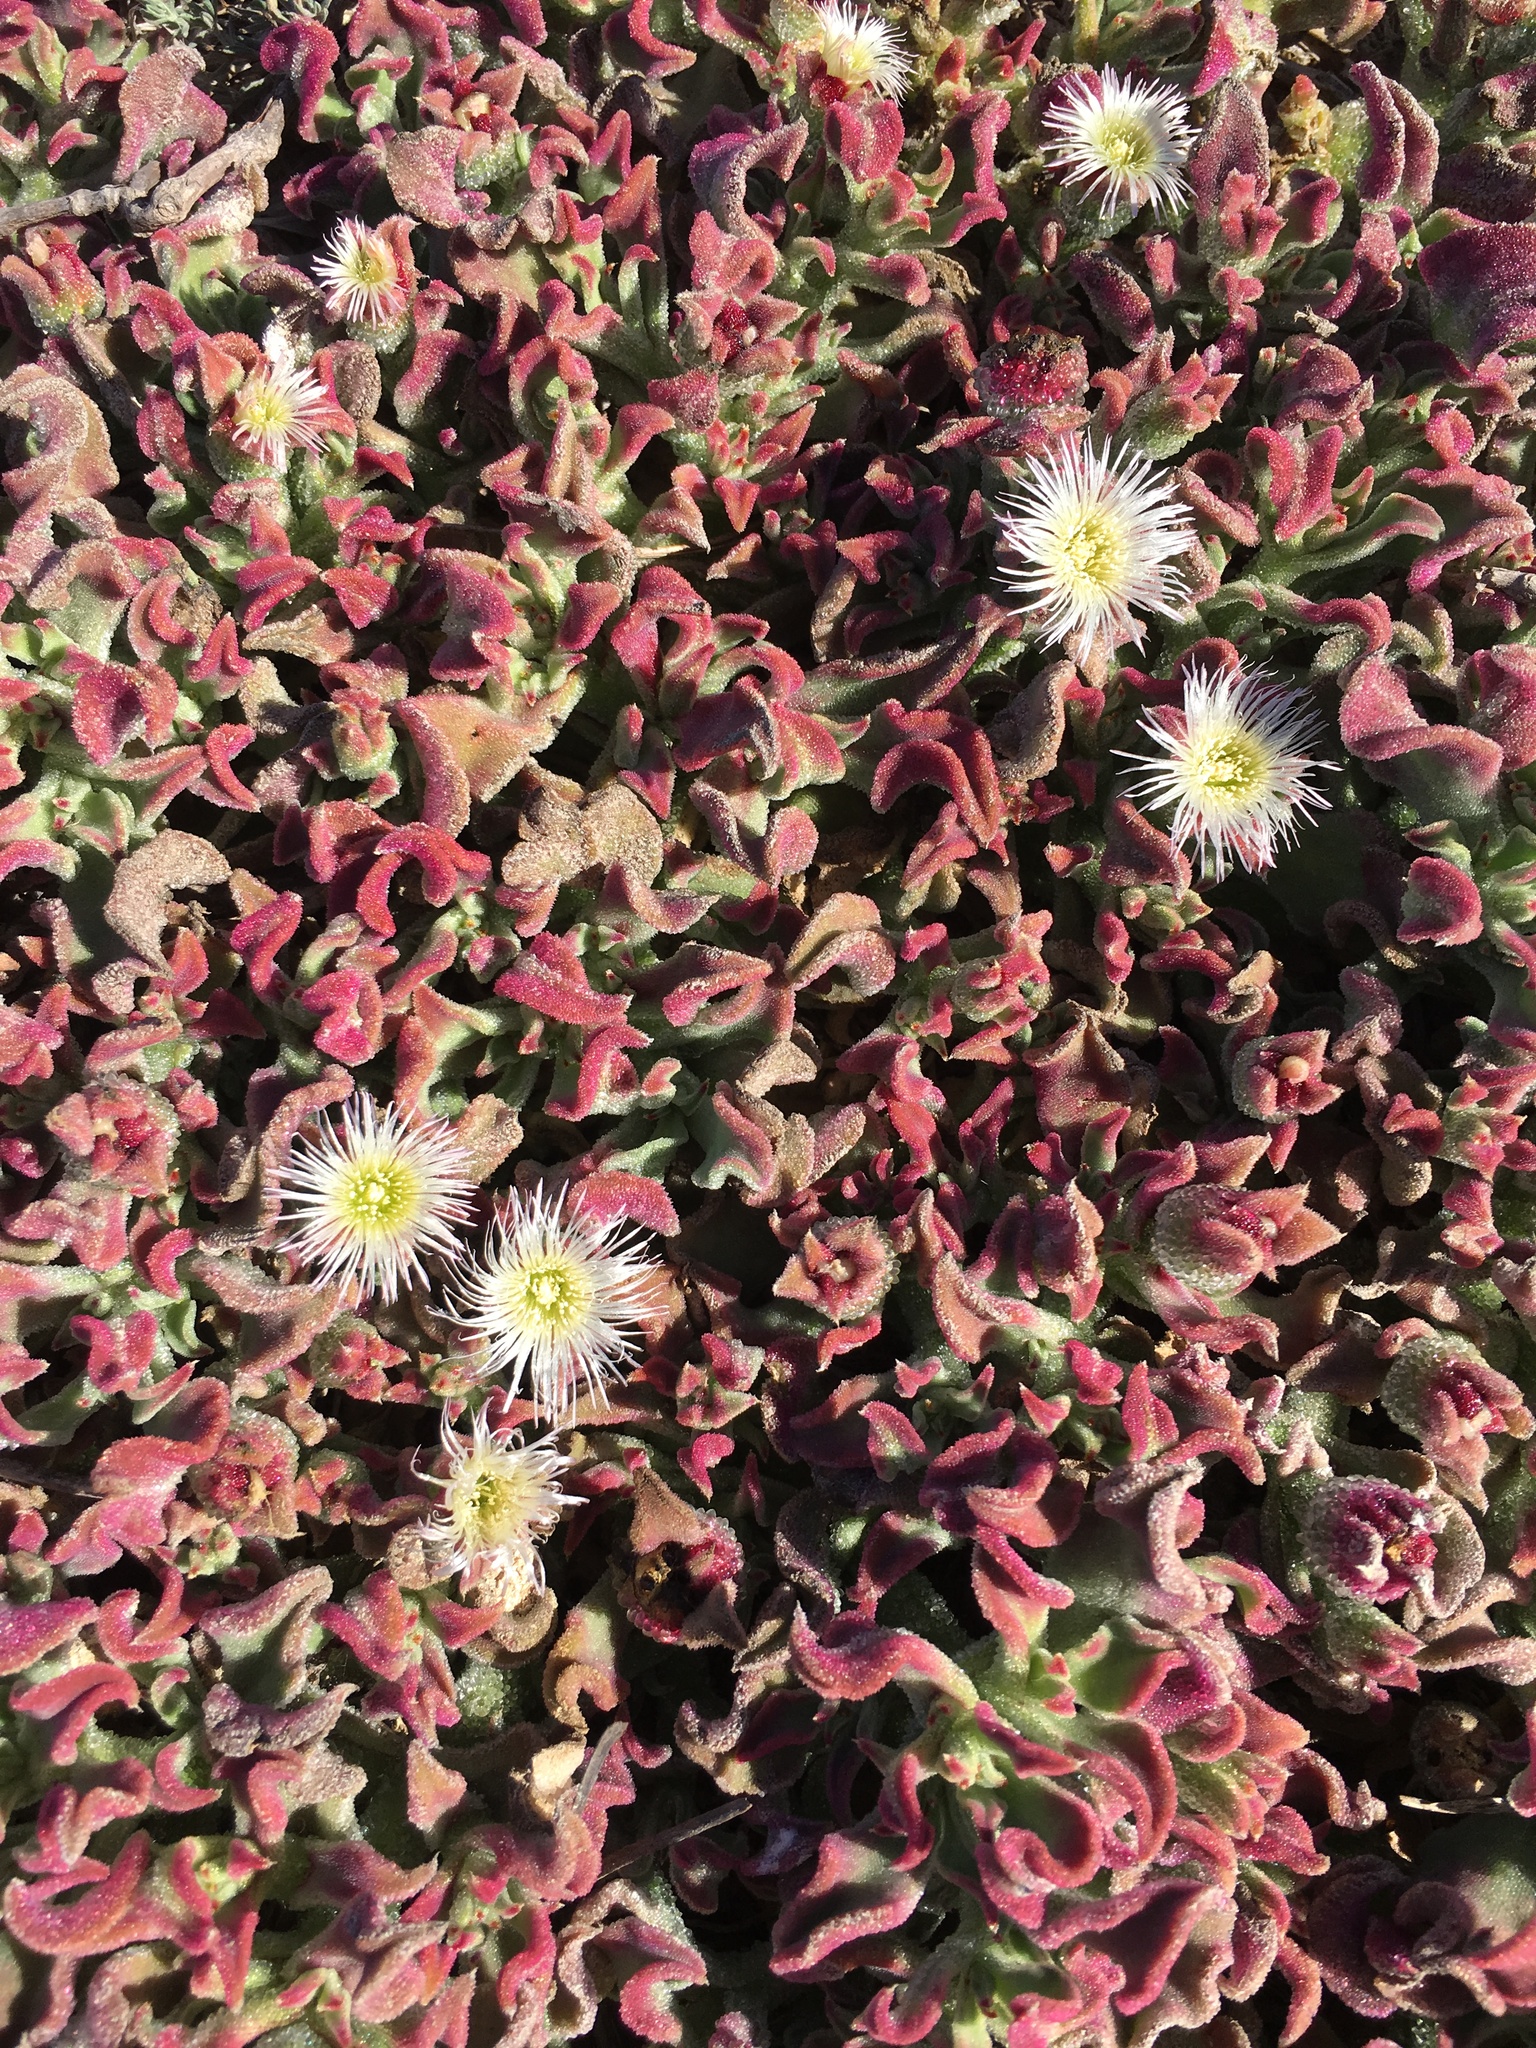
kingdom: Plantae
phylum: Tracheophyta
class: Magnoliopsida
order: Caryophyllales
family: Aizoaceae
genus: Mesembryanthemum
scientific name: Mesembryanthemum crystallinum
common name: Common iceplant
